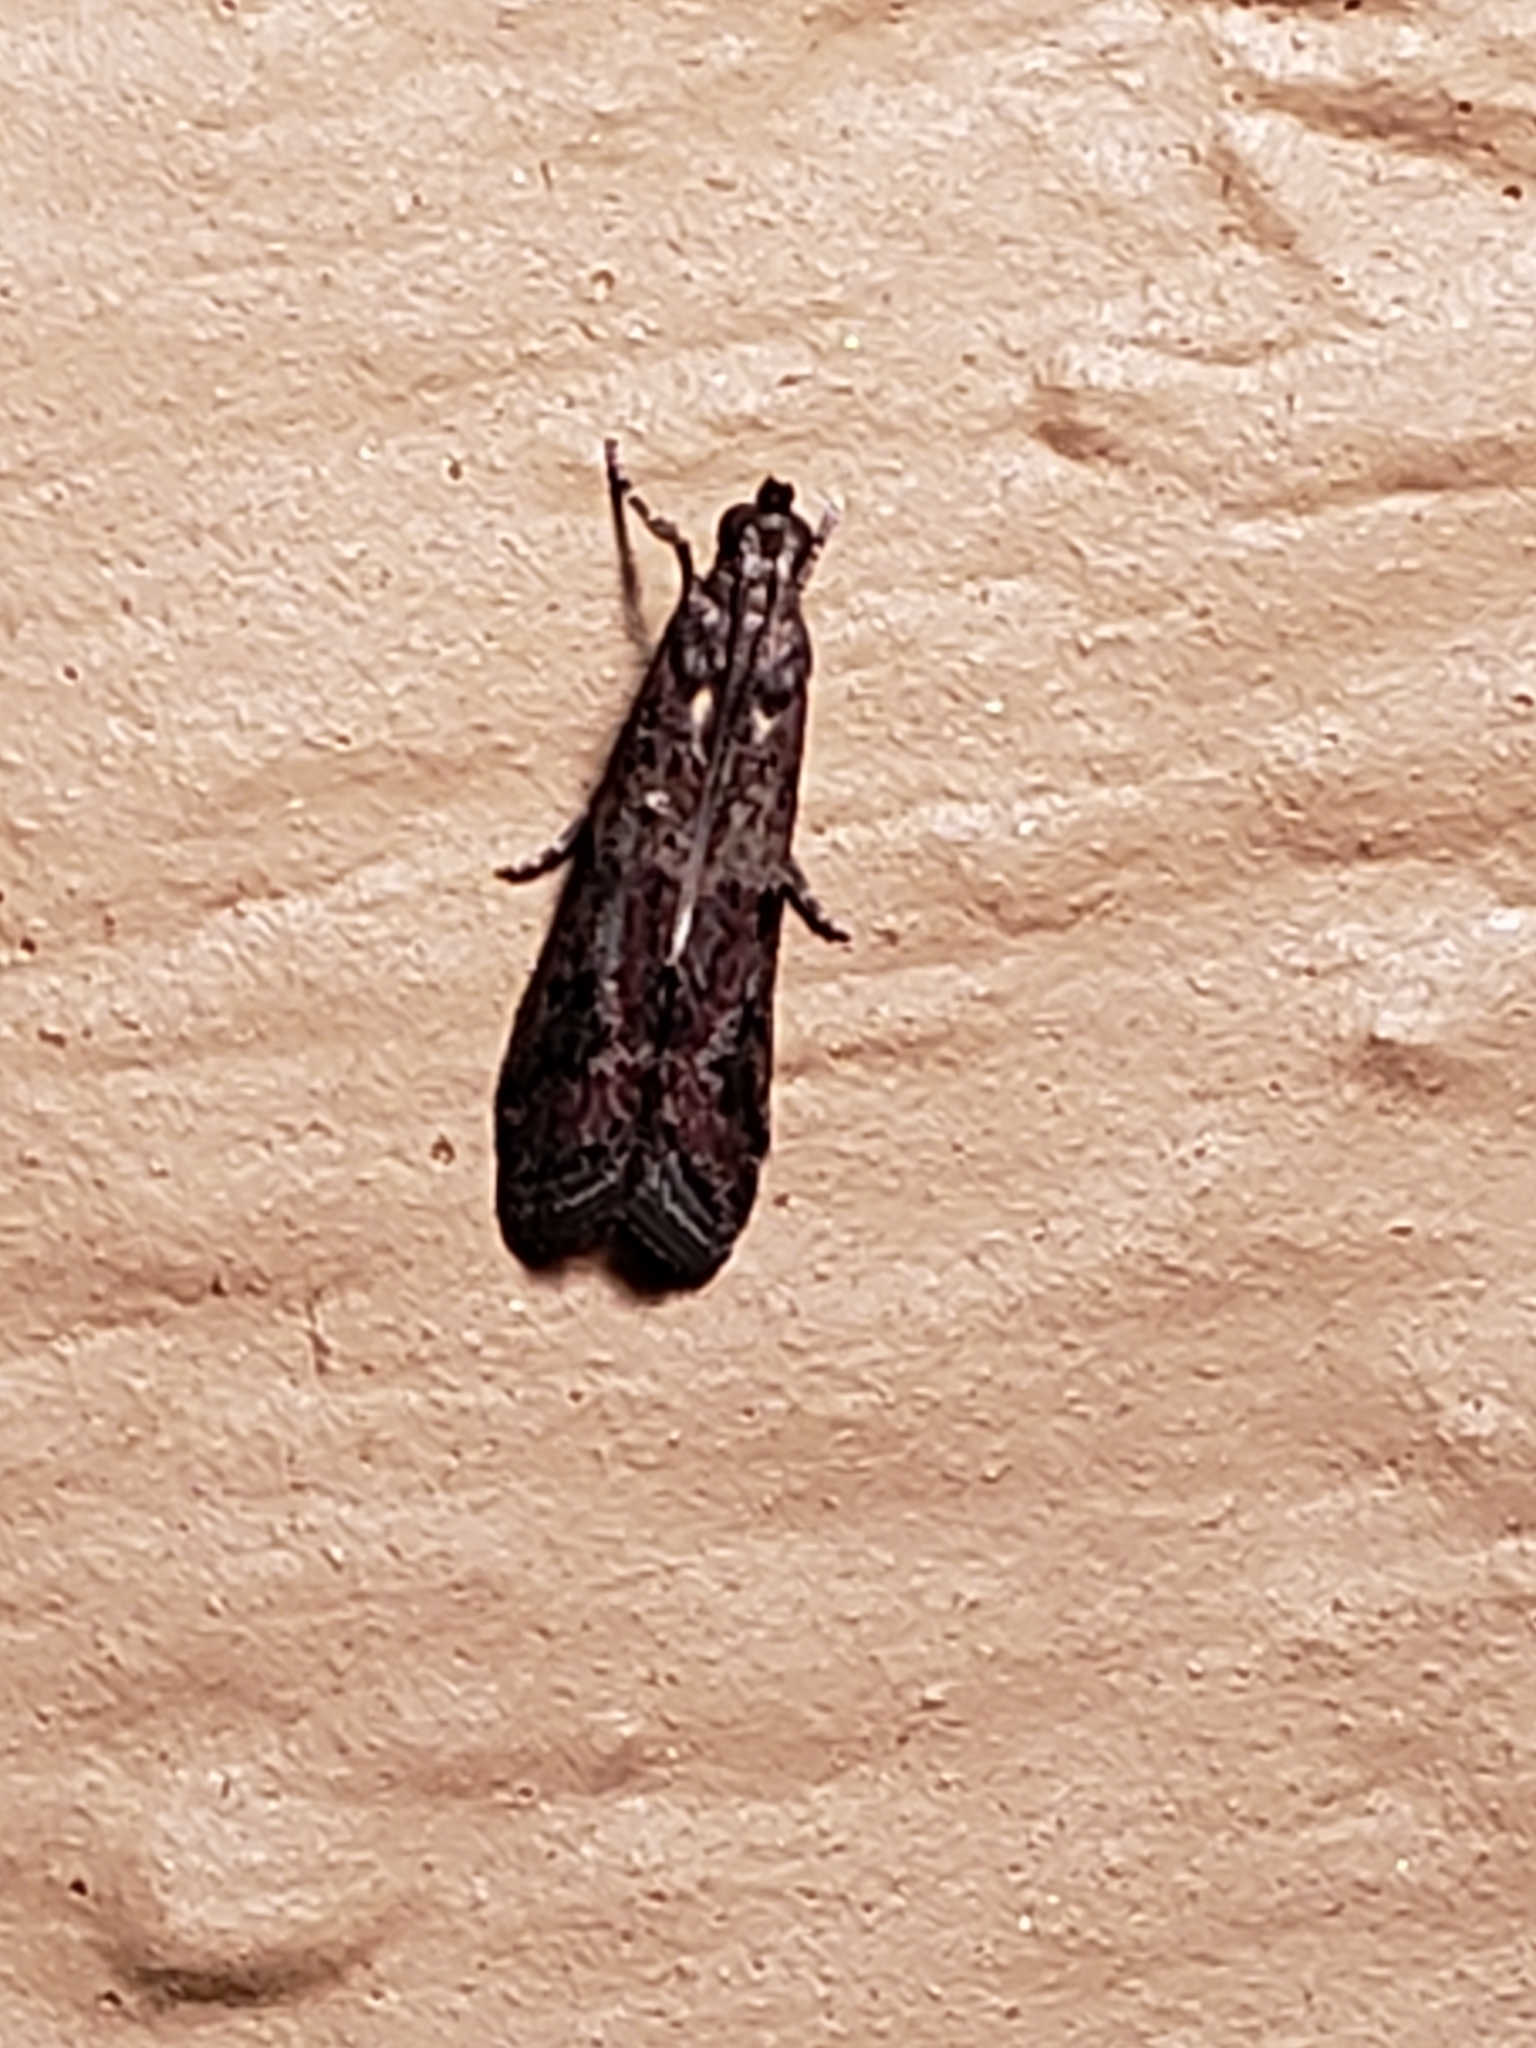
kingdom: Animalia
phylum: Arthropoda
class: Insecta
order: Lepidoptera
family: Pyralidae
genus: Ephestiodes
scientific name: Ephestiodes infimella
